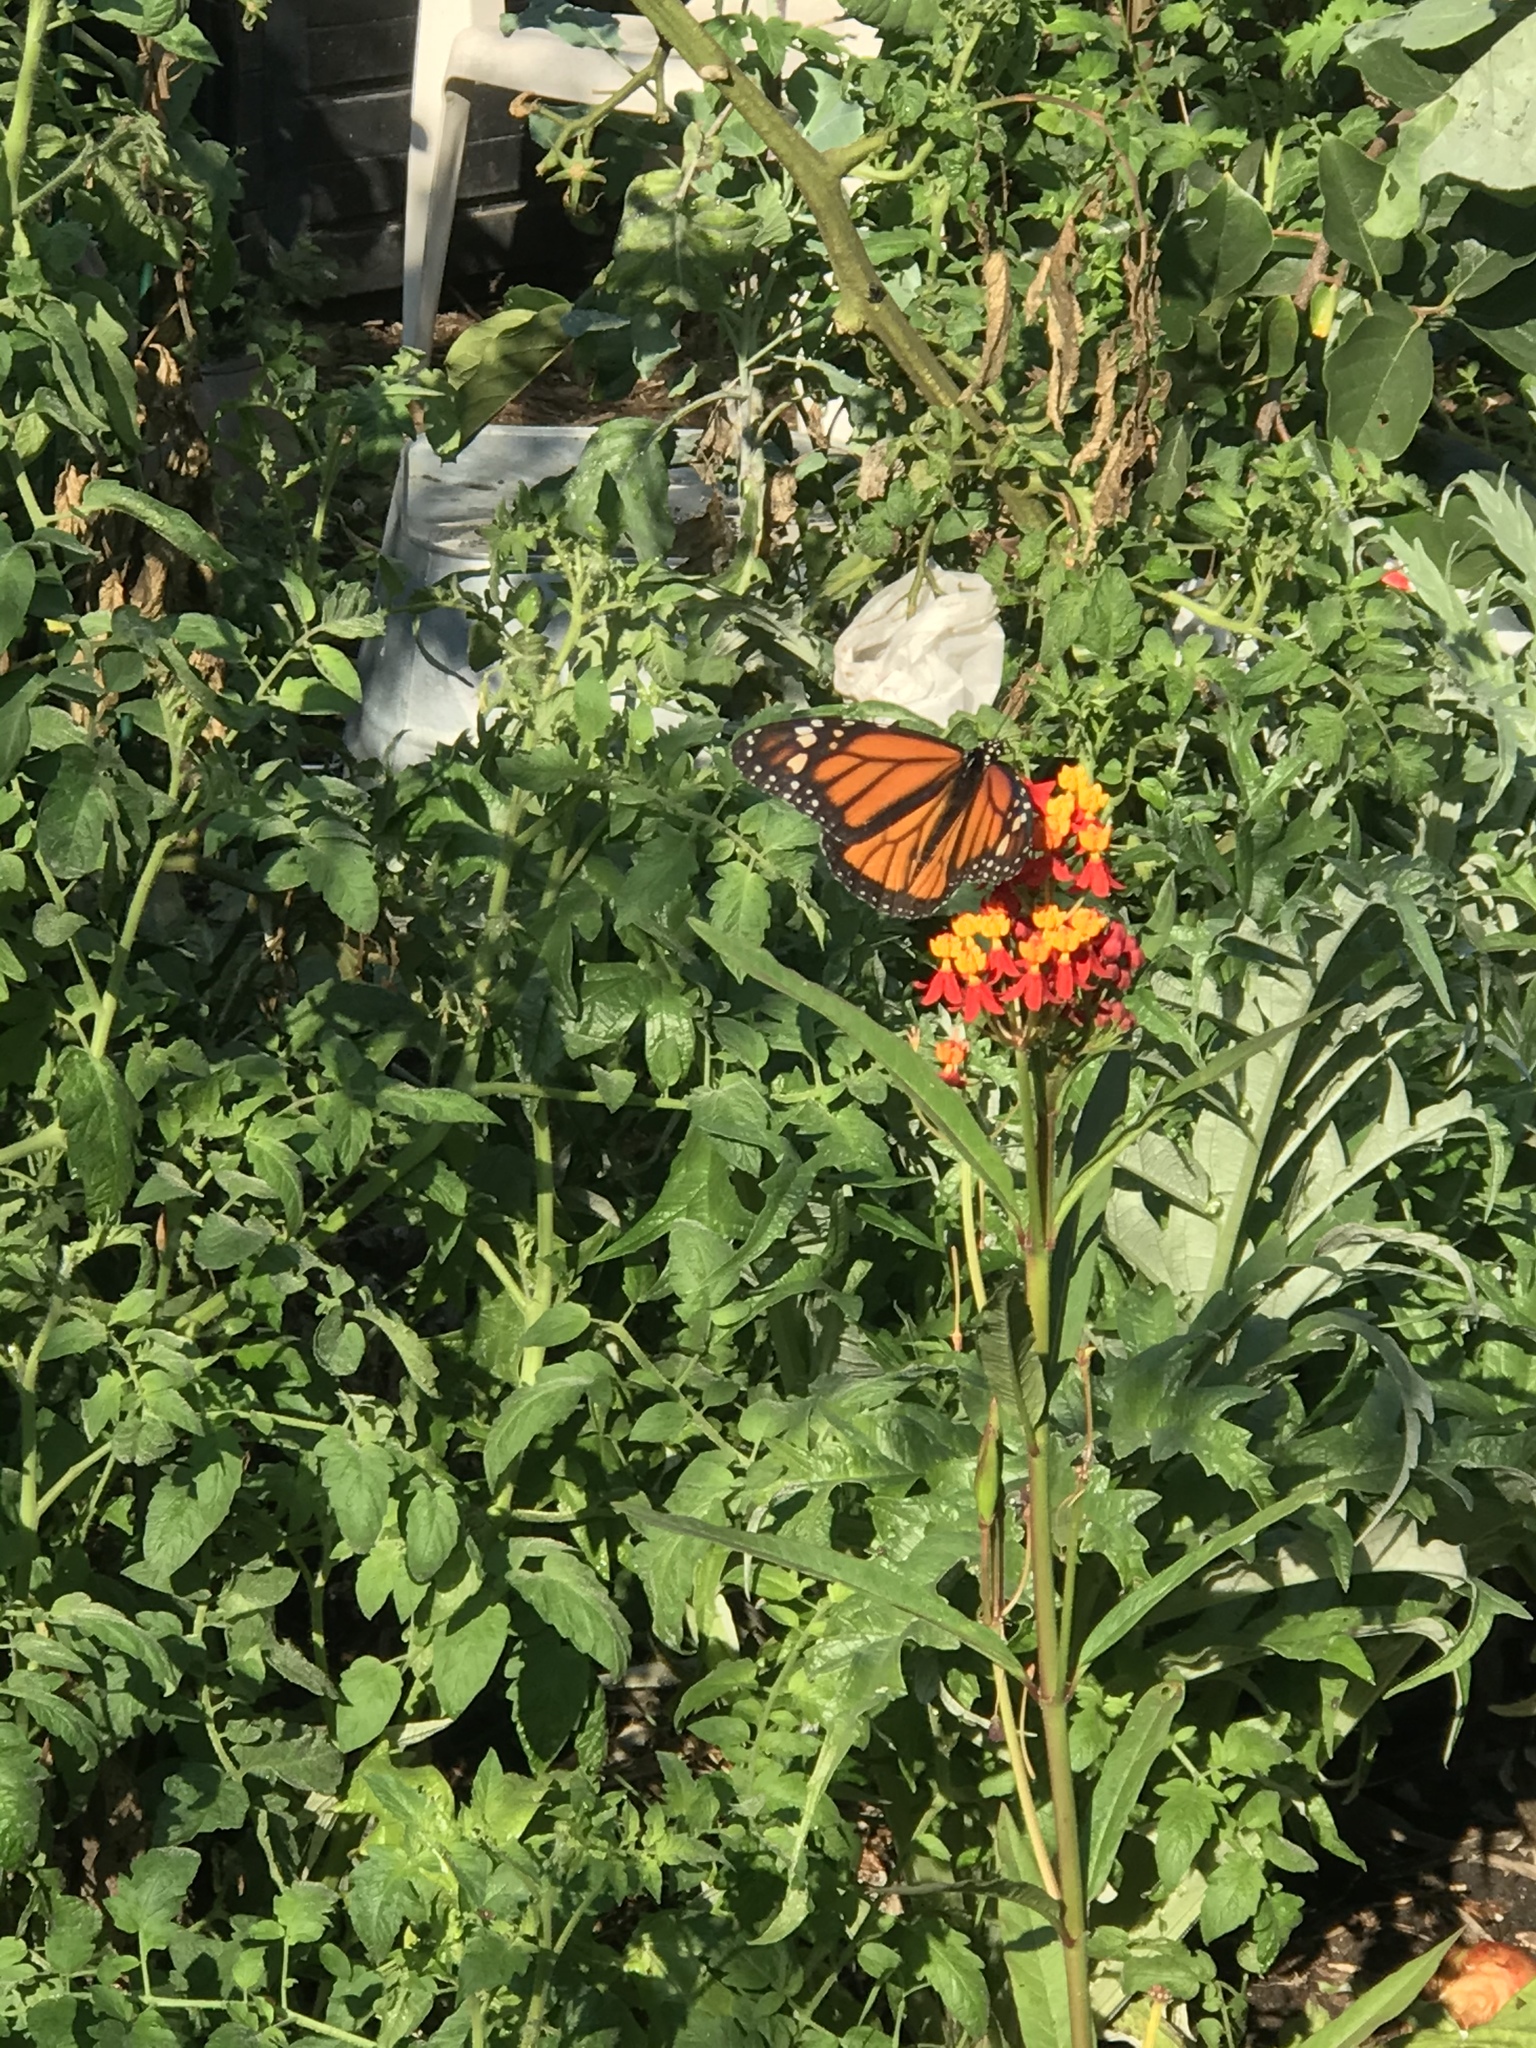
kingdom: Animalia
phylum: Arthropoda
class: Insecta
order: Lepidoptera
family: Nymphalidae
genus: Danaus
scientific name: Danaus plexippus
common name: Monarch
